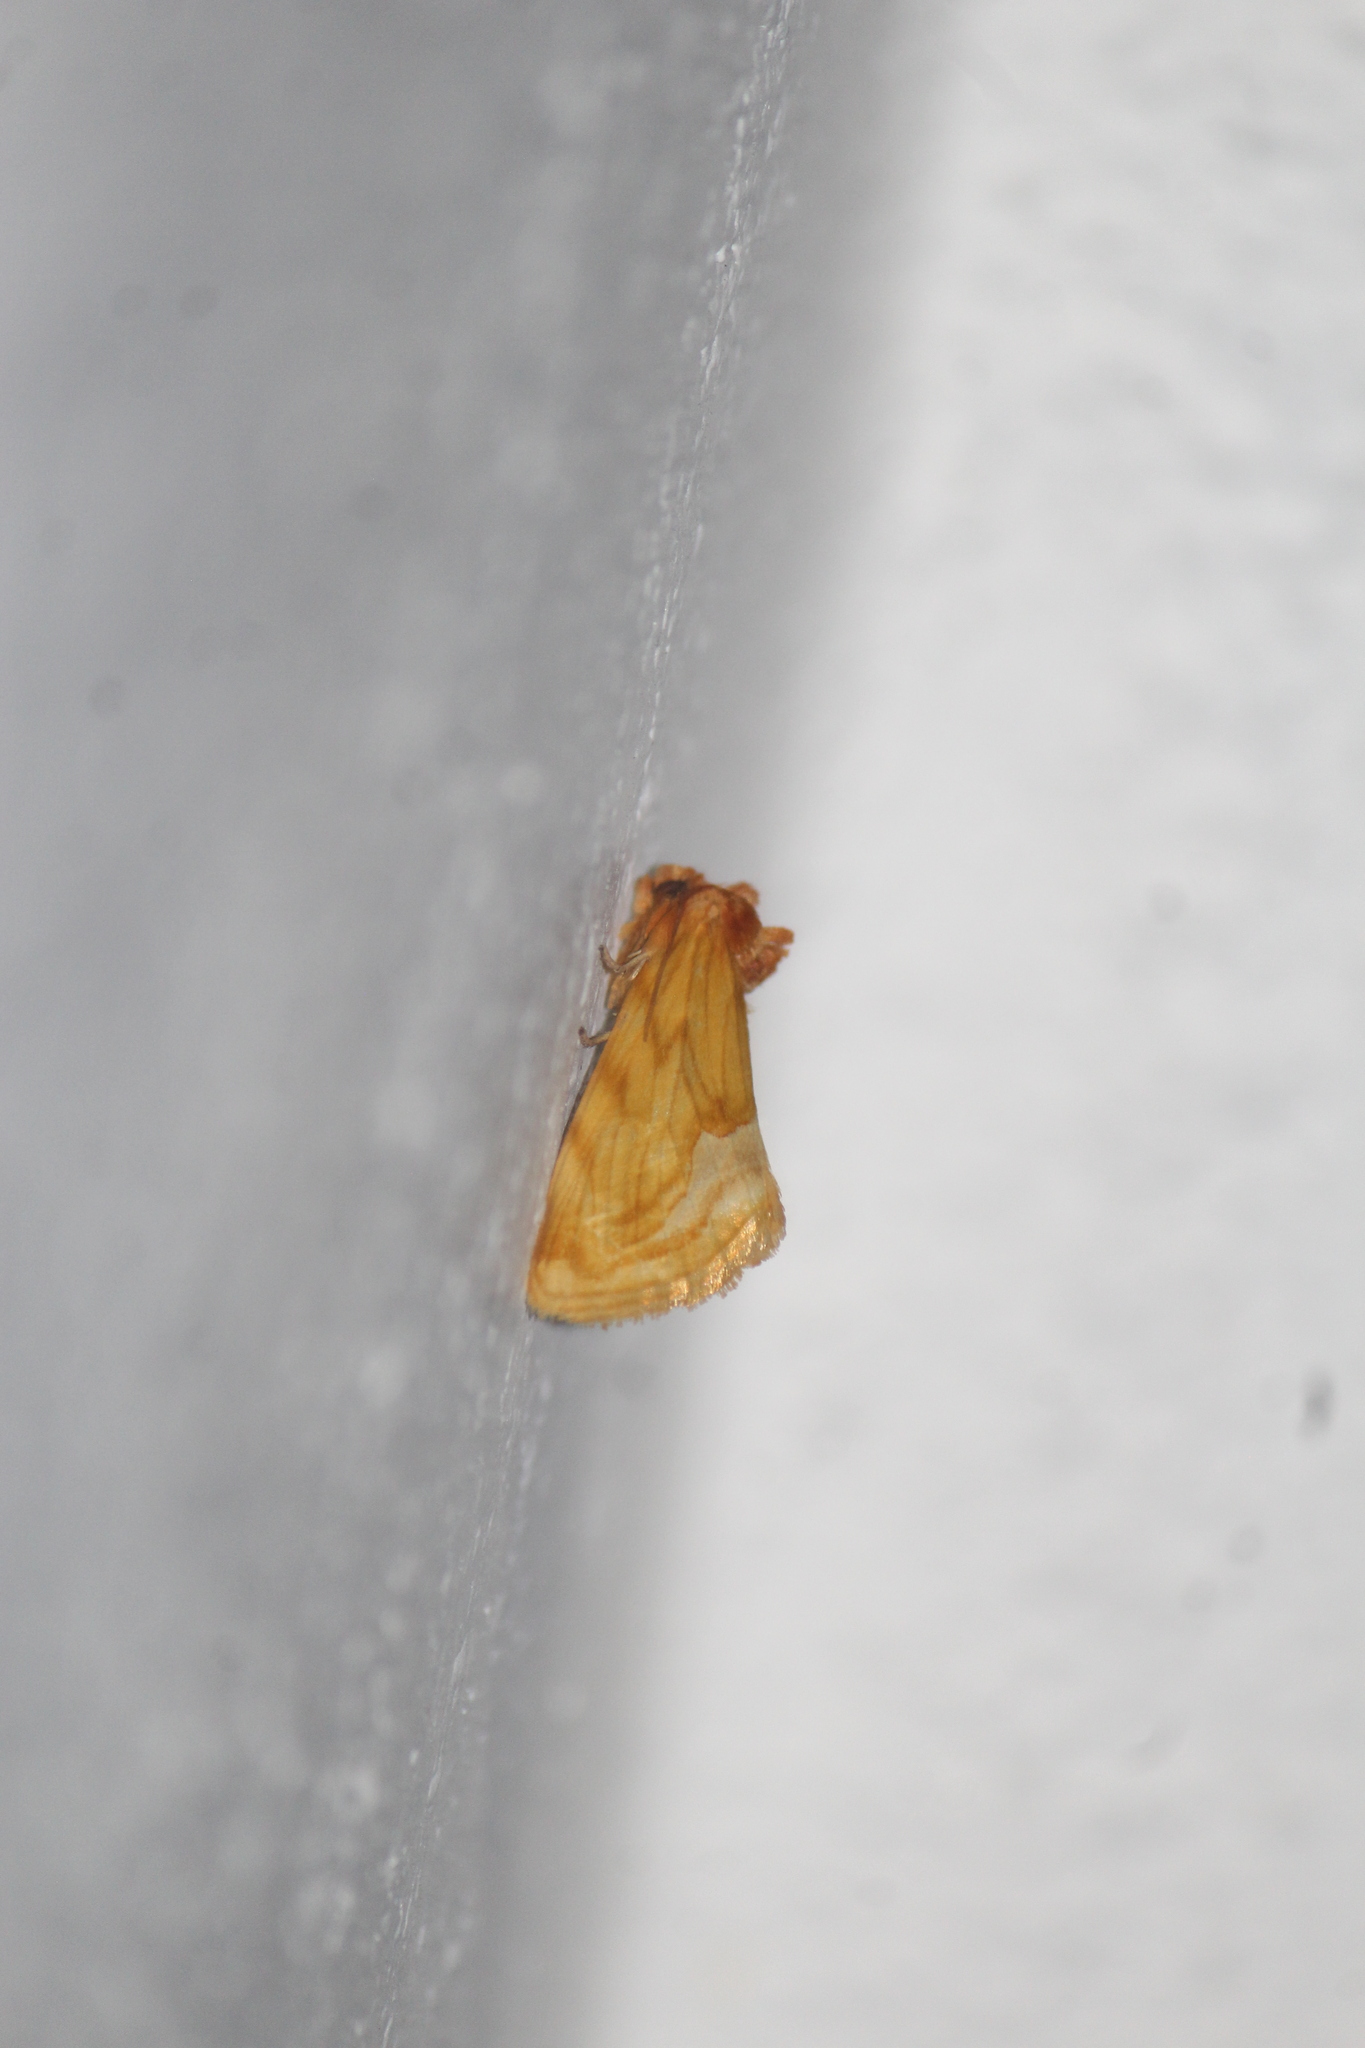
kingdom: Animalia
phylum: Arthropoda
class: Insecta
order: Lepidoptera
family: Noctuidae
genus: Cirrhophanus
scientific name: Cirrhophanus triangulifer
